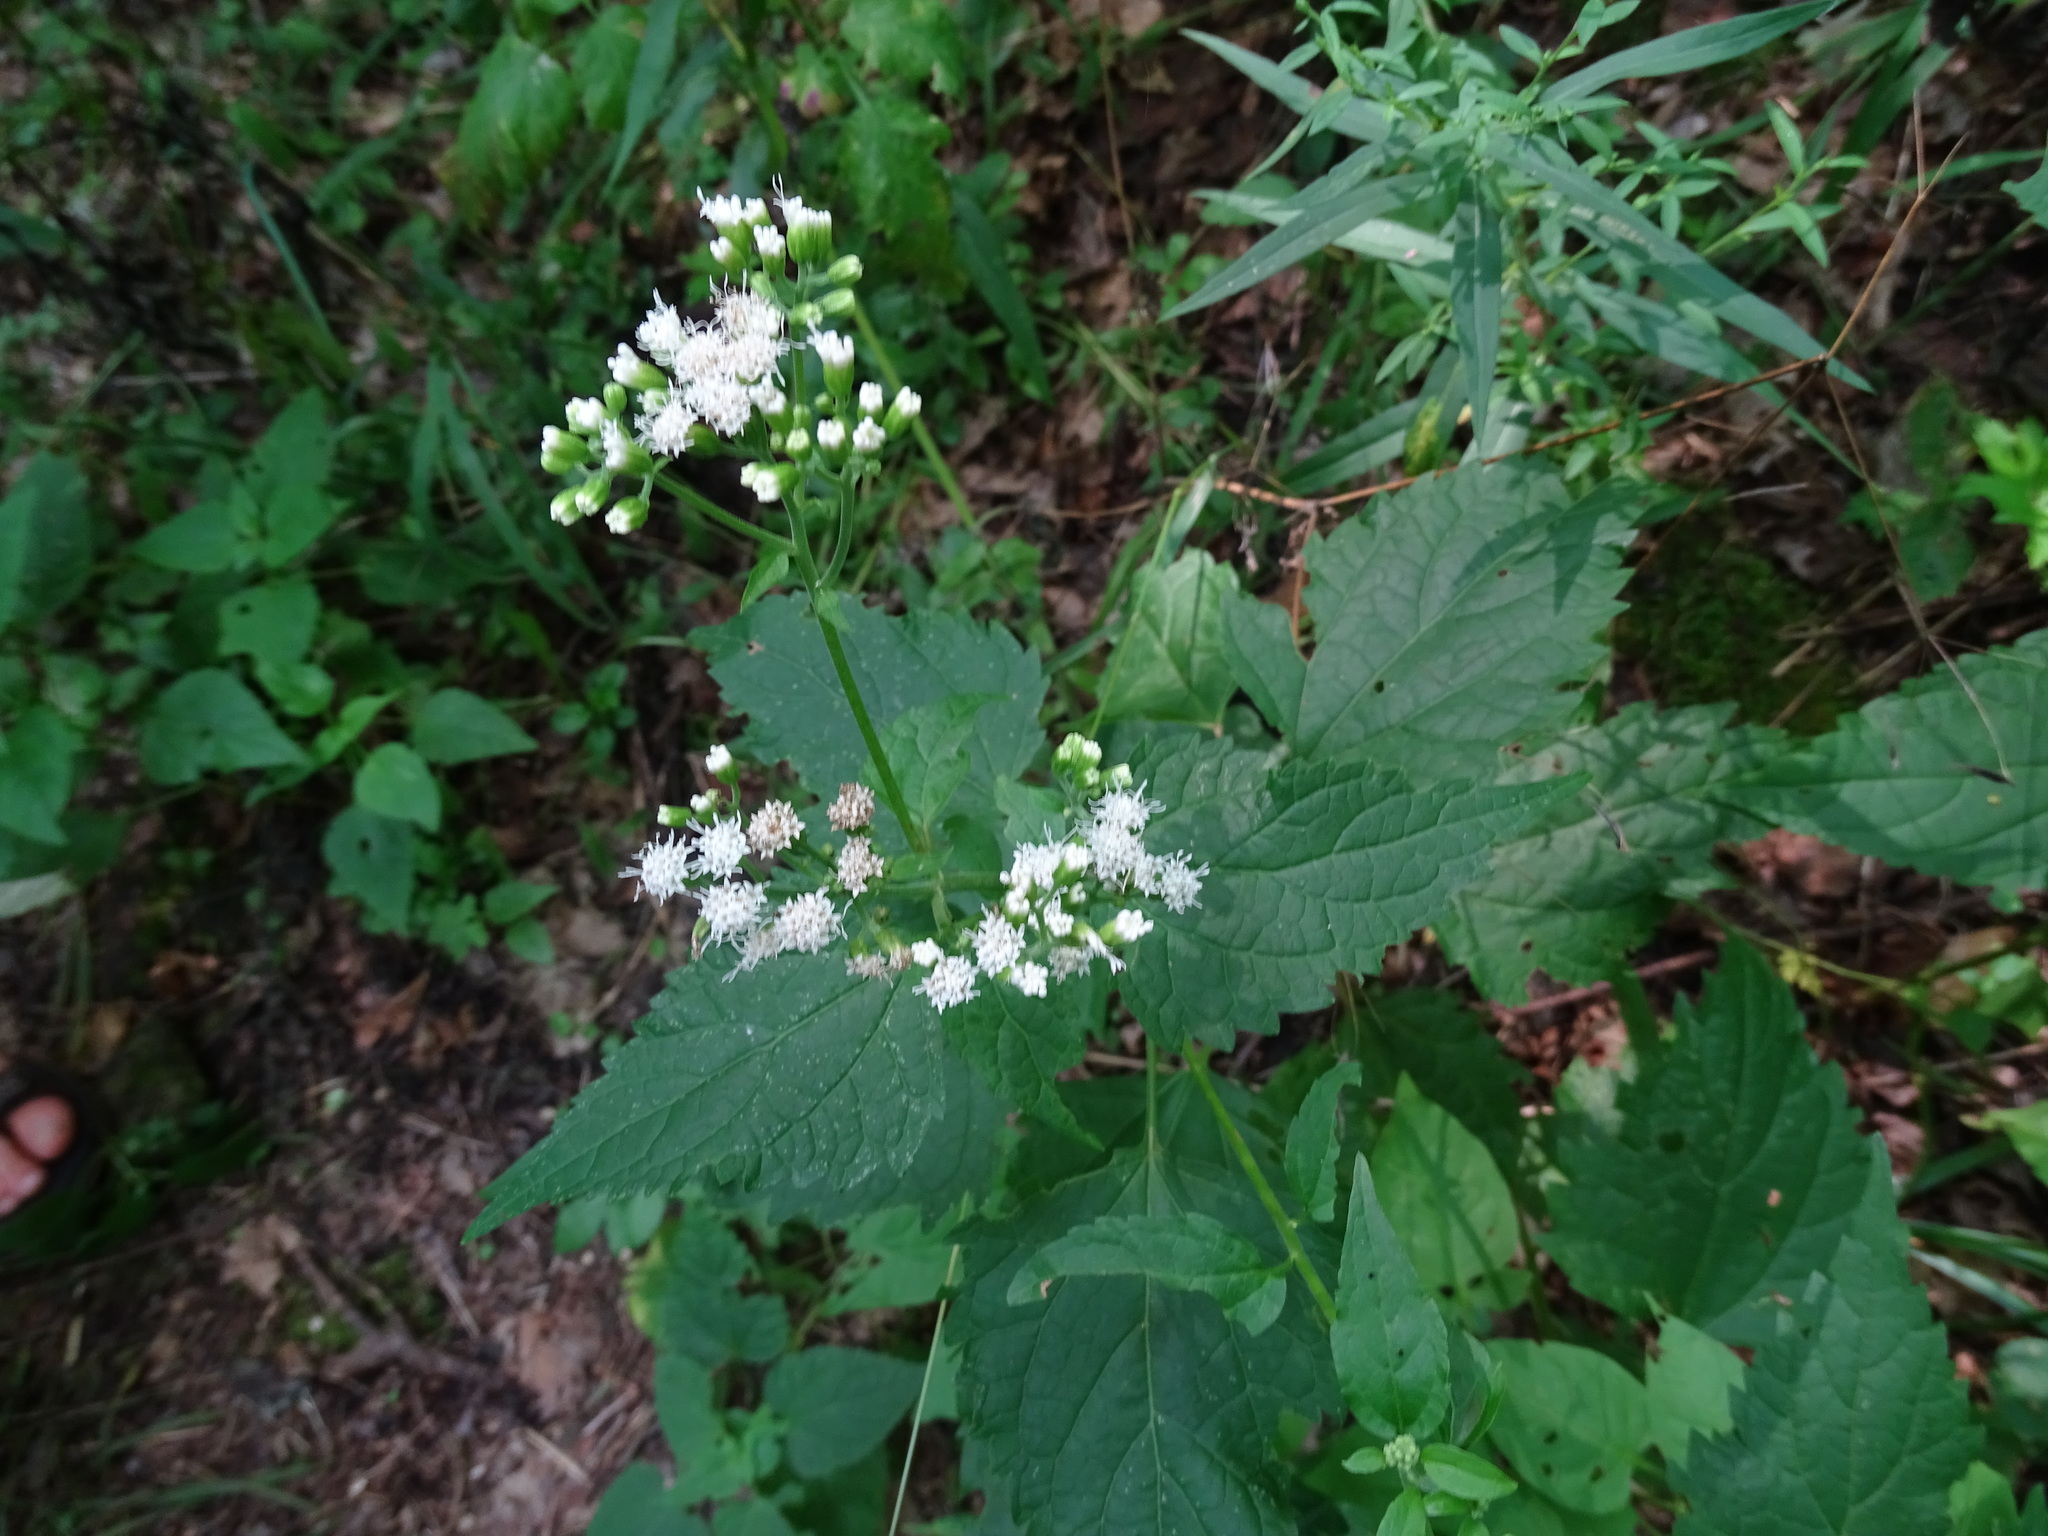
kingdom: Plantae
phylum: Tracheophyta
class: Magnoliopsida
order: Asterales
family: Asteraceae
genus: Ageratina
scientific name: Ageratina altissima
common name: White snakeroot
